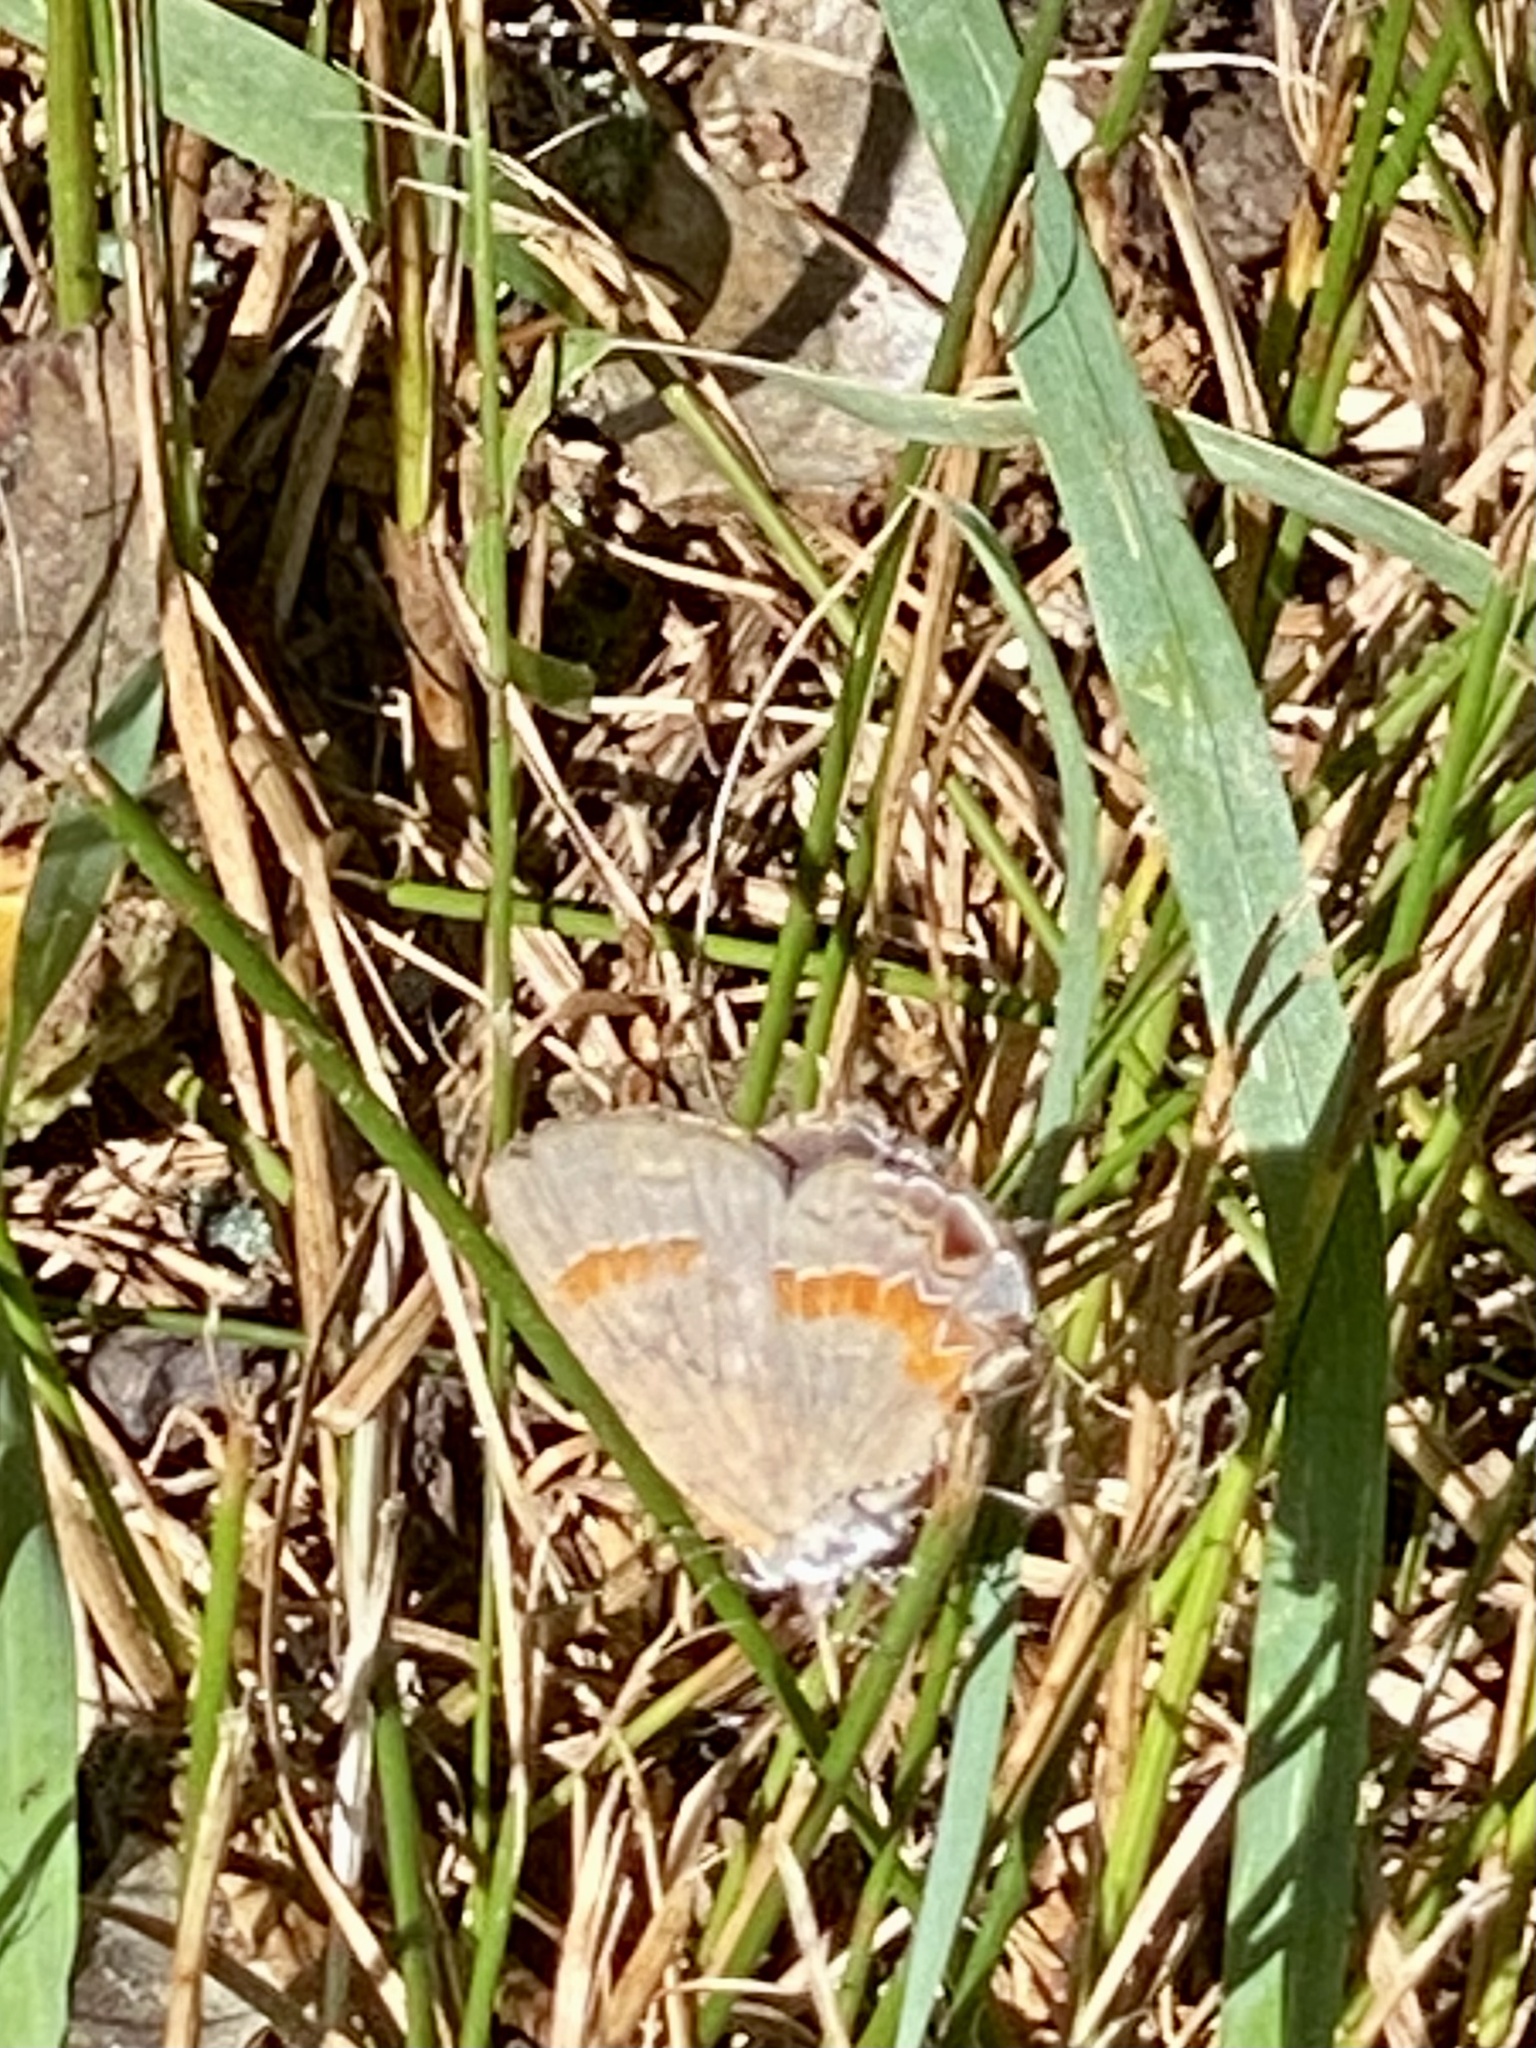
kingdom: Animalia
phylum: Arthropoda
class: Insecta
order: Lepidoptera
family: Lycaenidae
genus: Calycopis
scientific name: Calycopis cecrops
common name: Red-banded hairstreak
